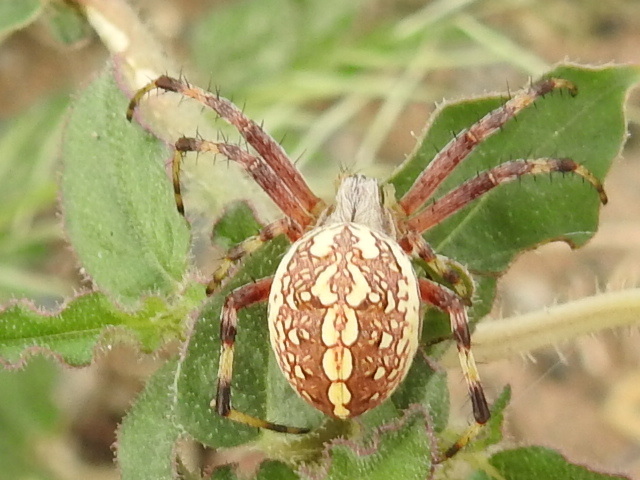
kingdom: Animalia
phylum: Arthropoda
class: Arachnida
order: Araneae
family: Araneidae
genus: Neoscona
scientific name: Neoscona oaxacensis
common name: Orb weavers
